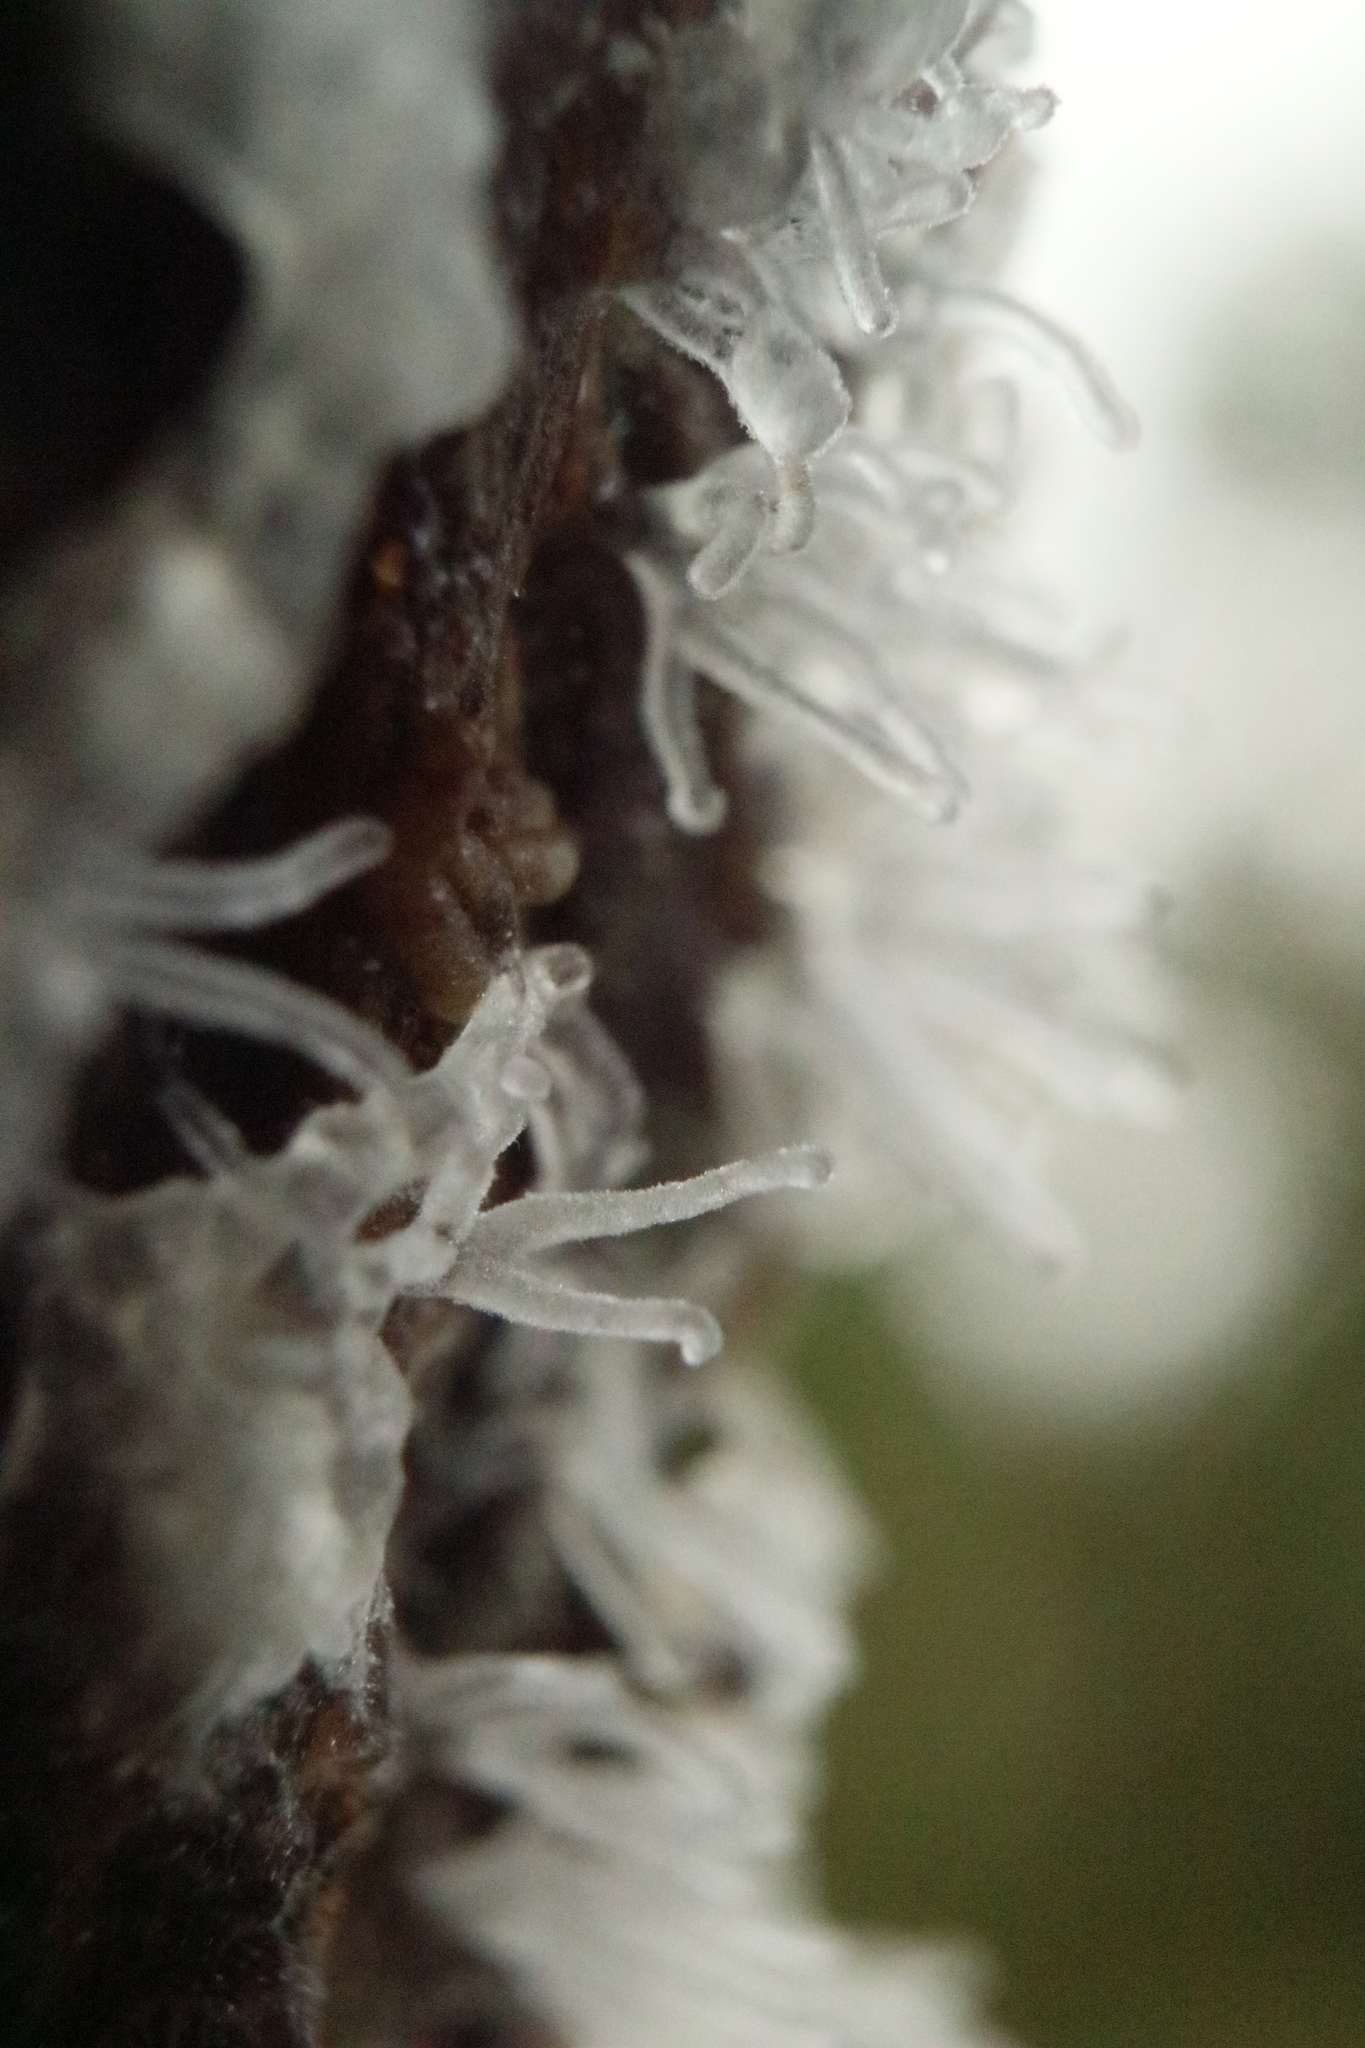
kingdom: Protozoa
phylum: Mycetozoa
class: Protosteliomycetes
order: Ceratiomyxales
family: Ceratiomyxaceae
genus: Ceratiomyxa
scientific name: Ceratiomyxa fruticulosa
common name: Honeycomb coral slime mold
